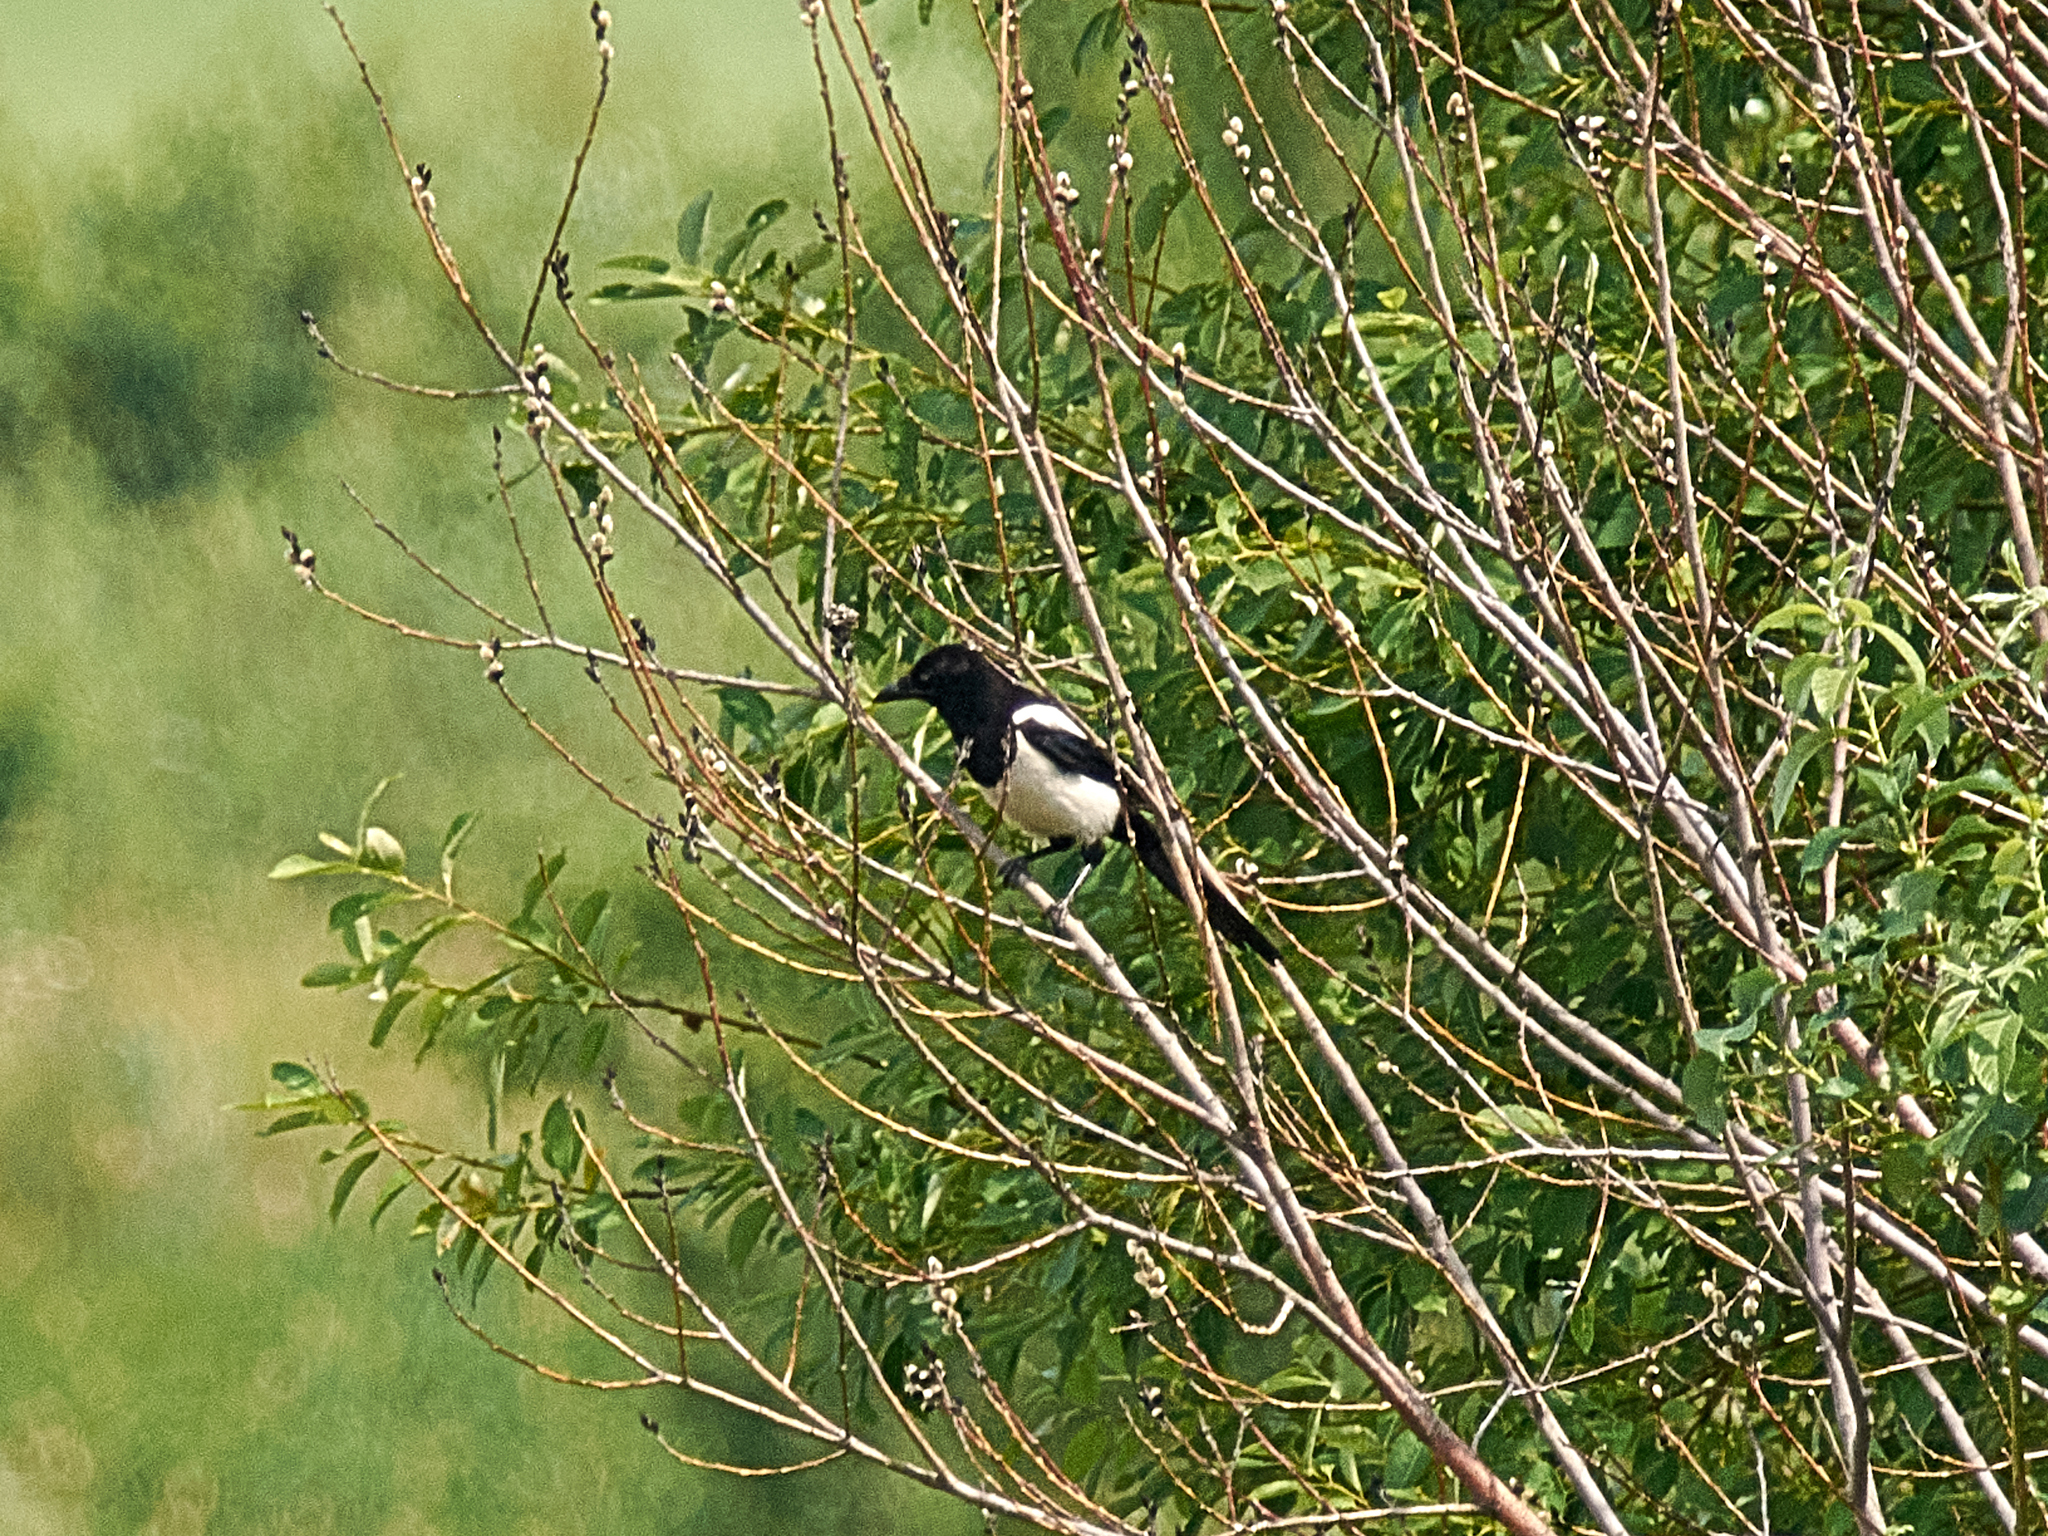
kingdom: Animalia
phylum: Chordata
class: Aves
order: Passeriformes
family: Corvidae
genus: Pica
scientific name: Pica pica
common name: Eurasian magpie
